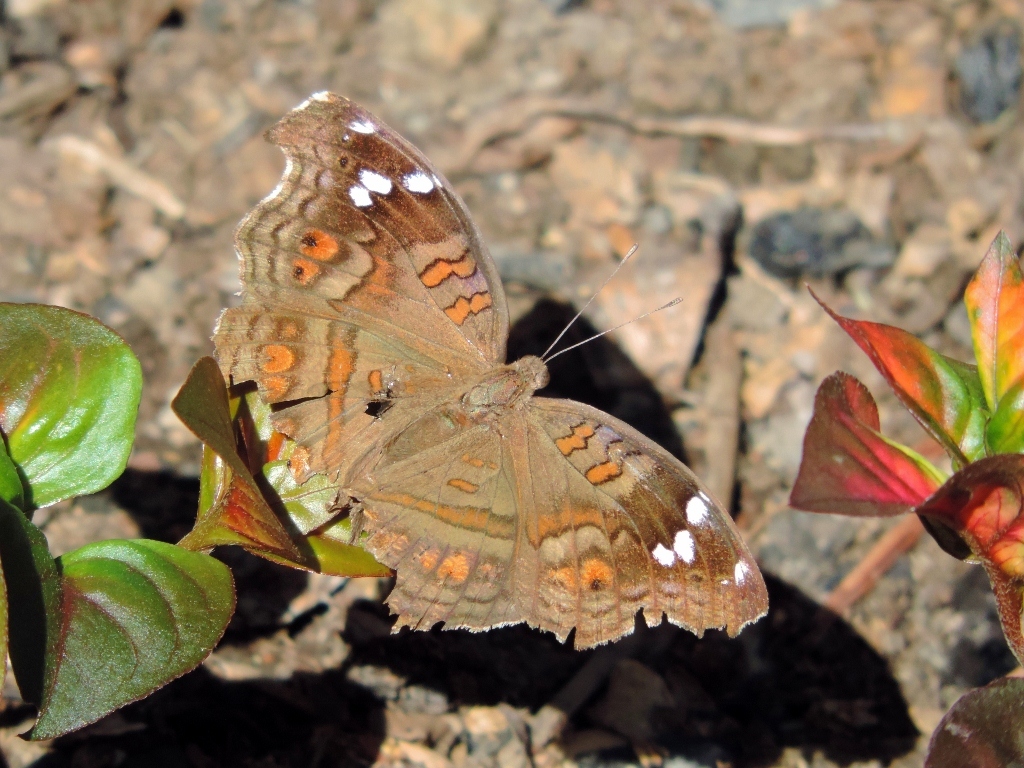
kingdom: Animalia
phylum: Arthropoda
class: Insecta
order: Lepidoptera
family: Nymphalidae
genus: Junonia
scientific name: Junonia natalica
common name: Brown pansy
